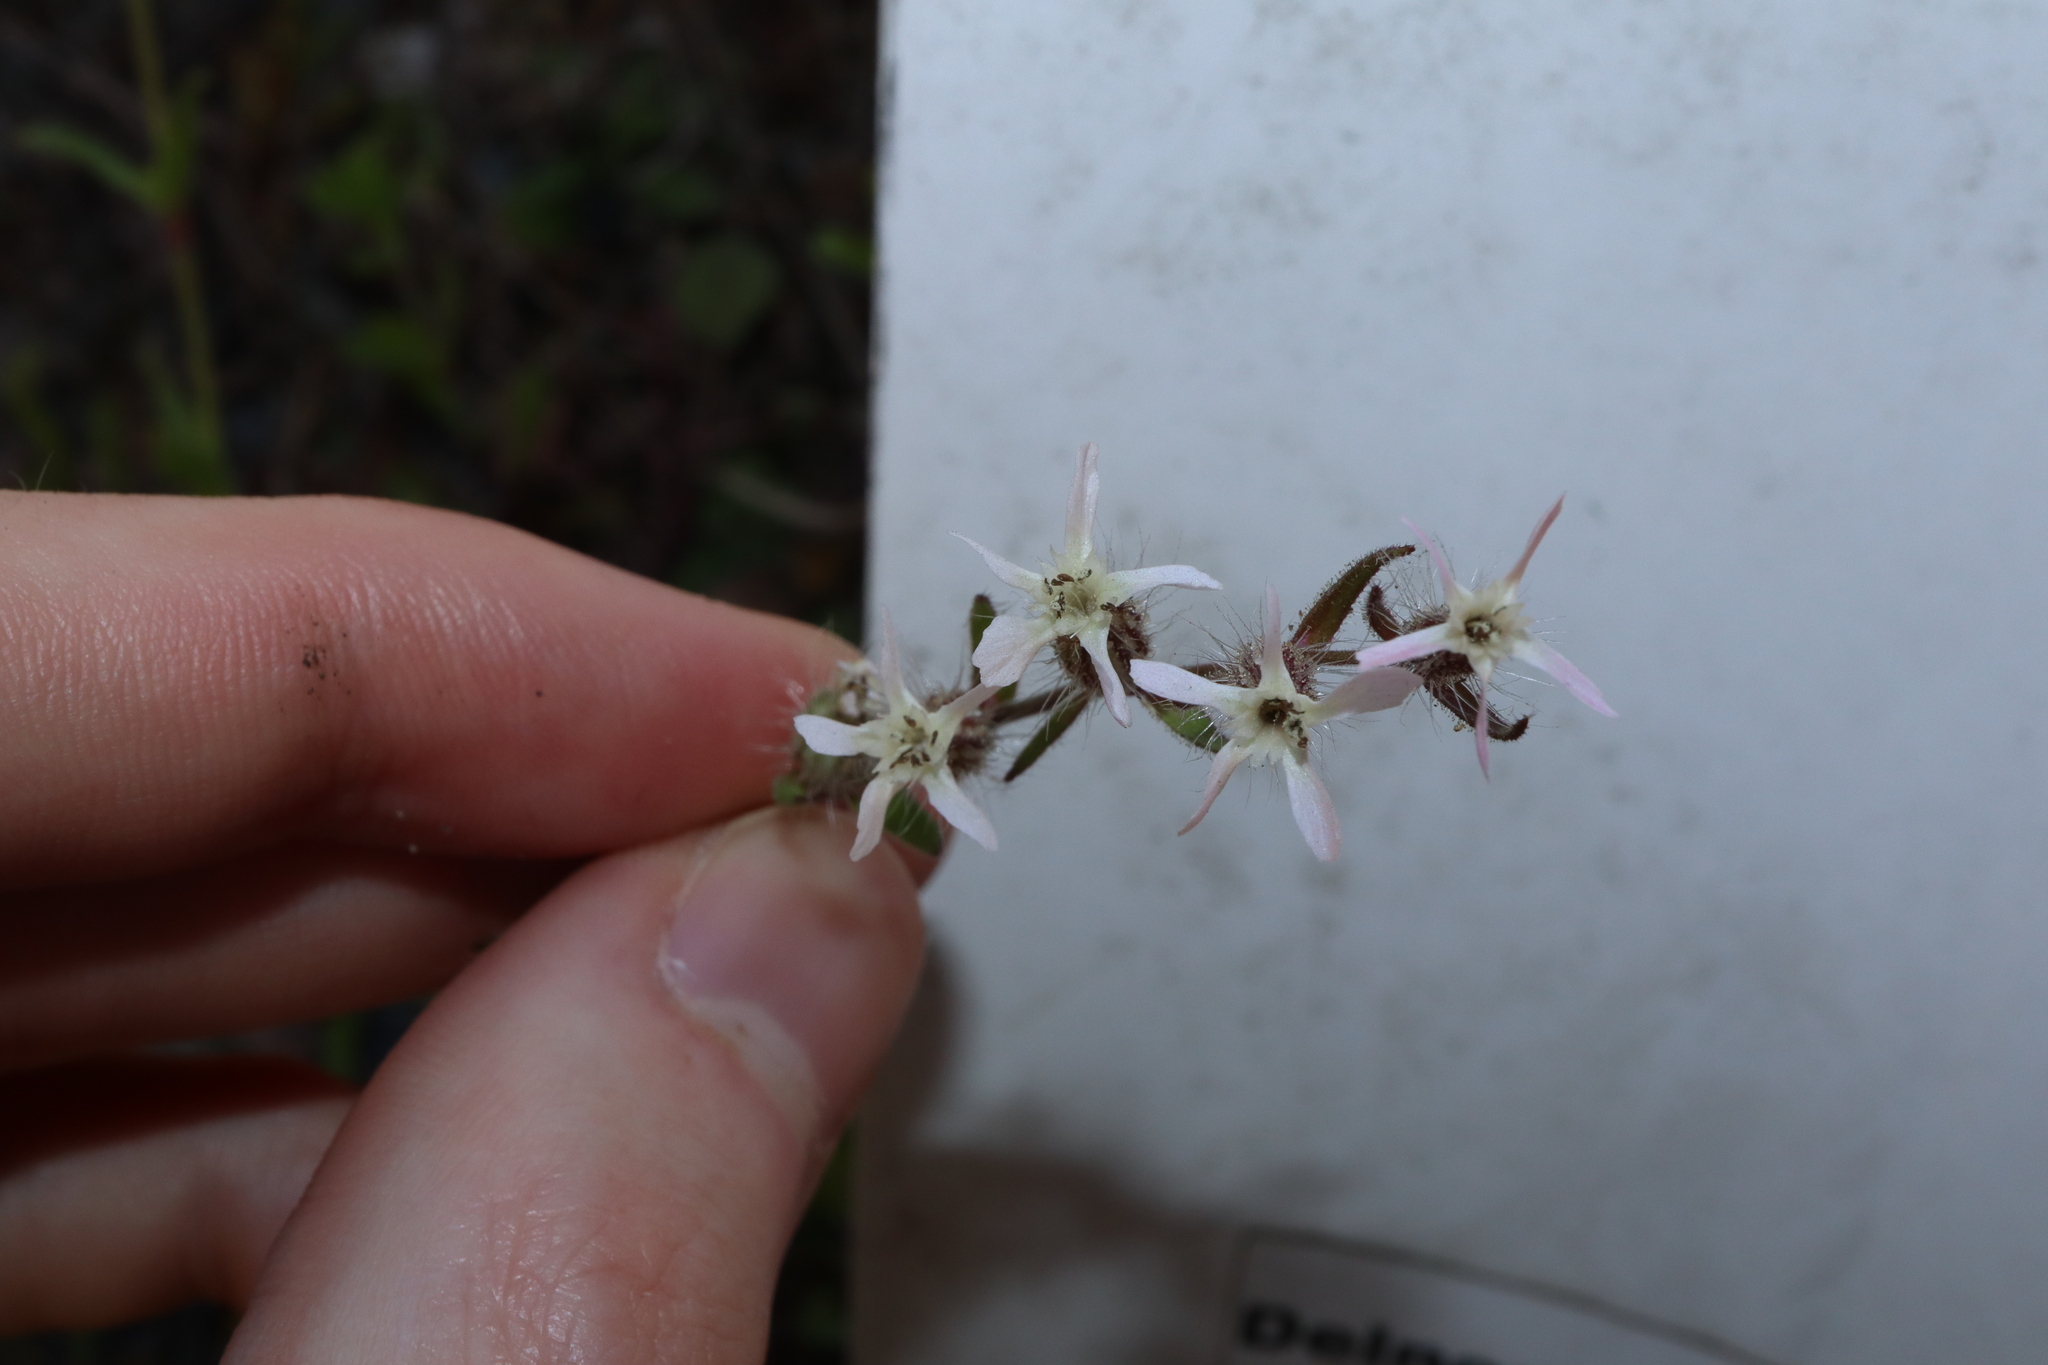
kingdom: Plantae
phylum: Tracheophyta
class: Magnoliopsida
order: Caryophyllales
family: Caryophyllaceae
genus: Silene
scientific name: Silene gallica
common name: Small-flowered catchfly
